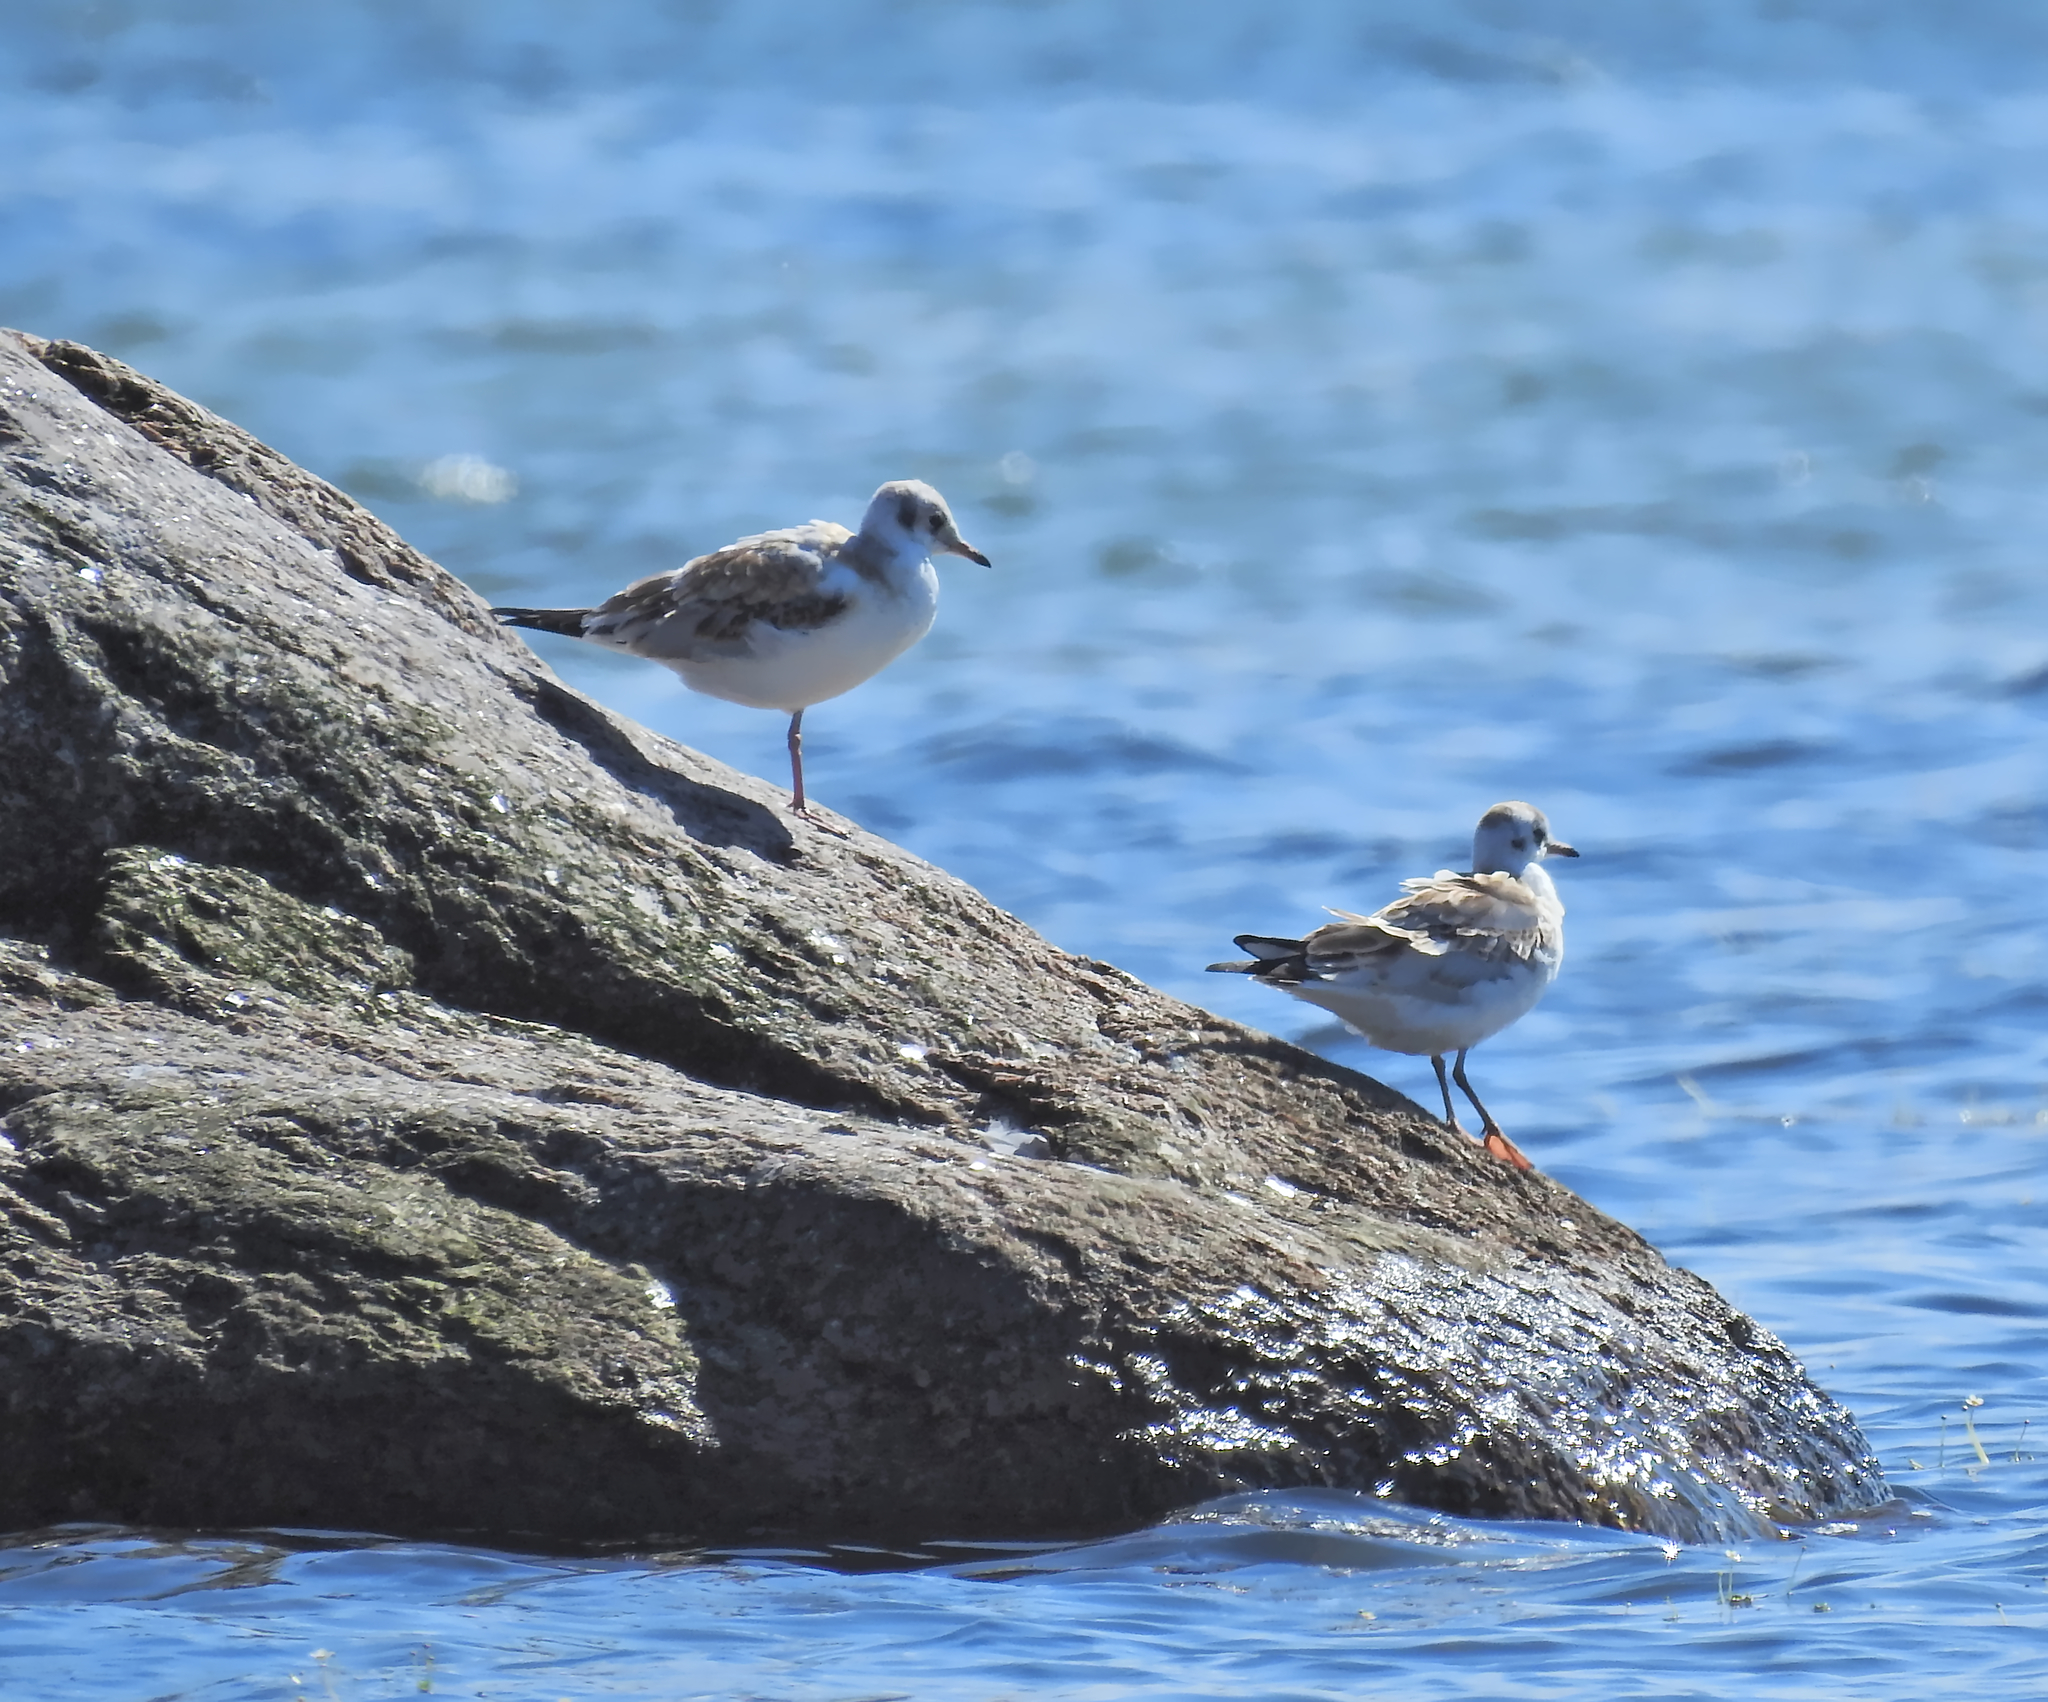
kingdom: Animalia
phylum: Chordata
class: Aves
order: Charadriiformes
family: Laridae
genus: Chroicocephalus
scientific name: Chroicocephalus ridibundus
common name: Black-headed gull
